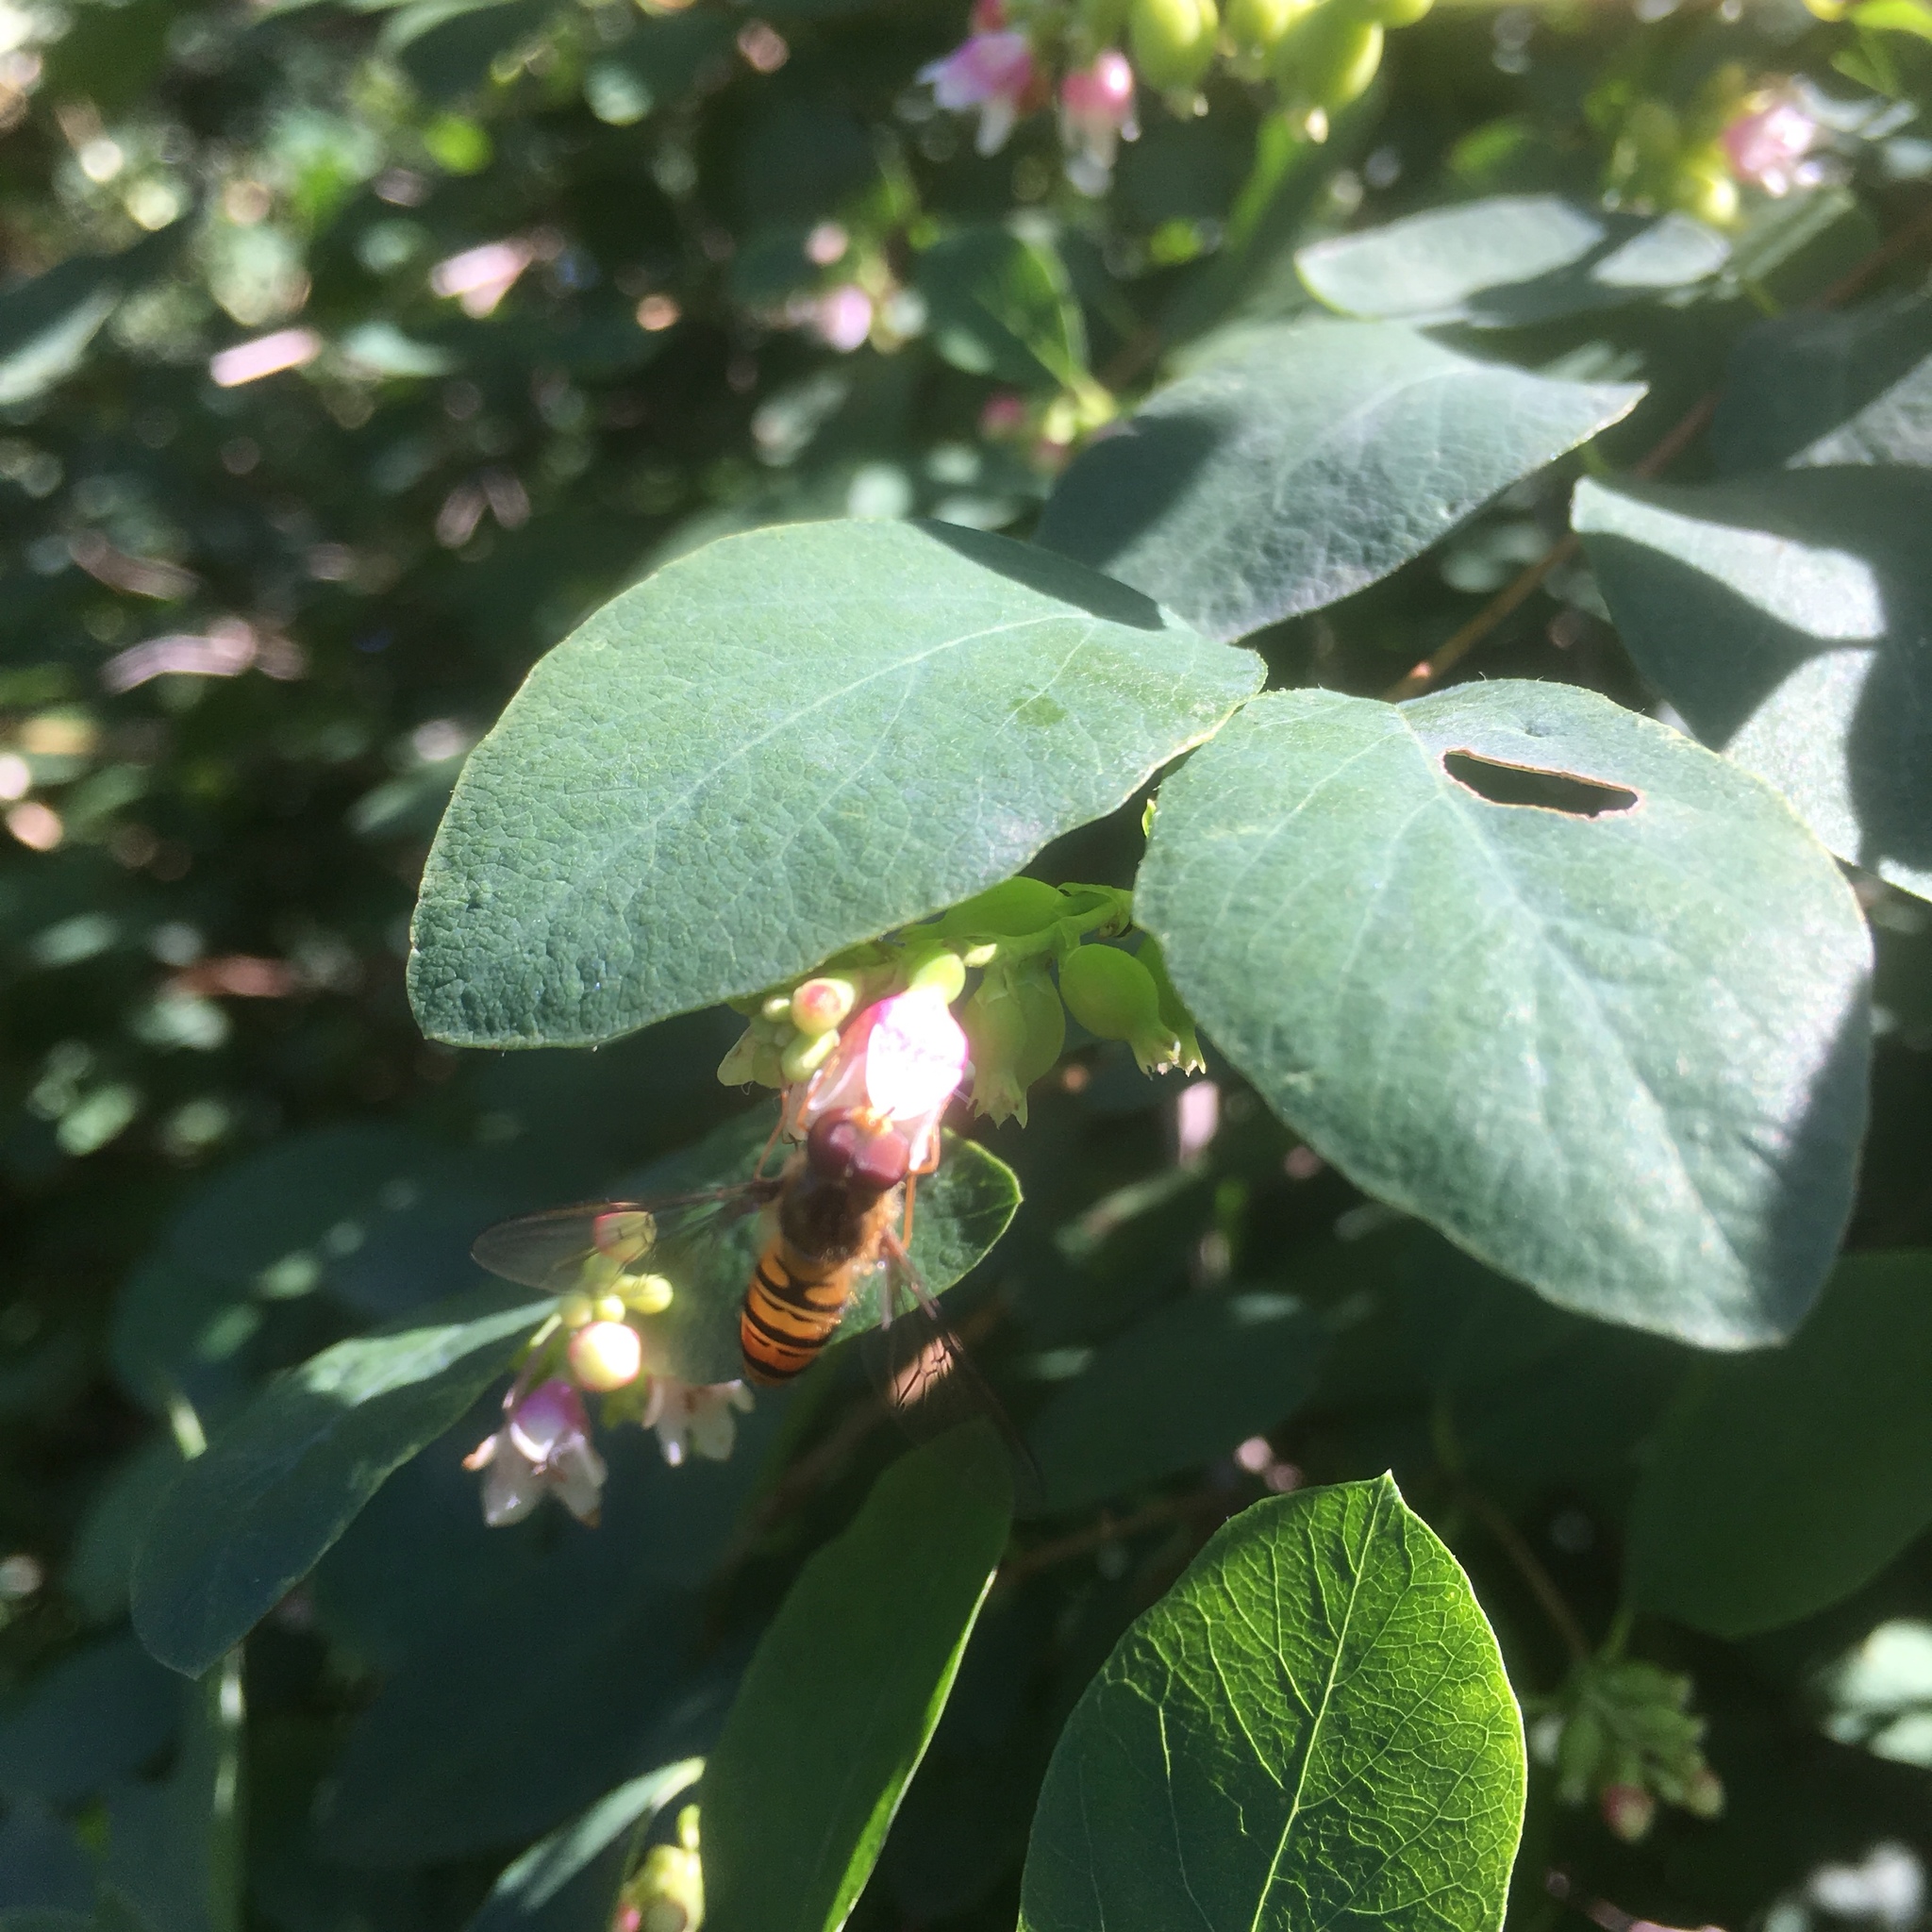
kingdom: Animalia
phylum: Arthropoda
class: Insecta
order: Diptera
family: Syrphidae
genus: Episyrphus
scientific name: Episyrphus balteatus
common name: Marmalade hoverfly
